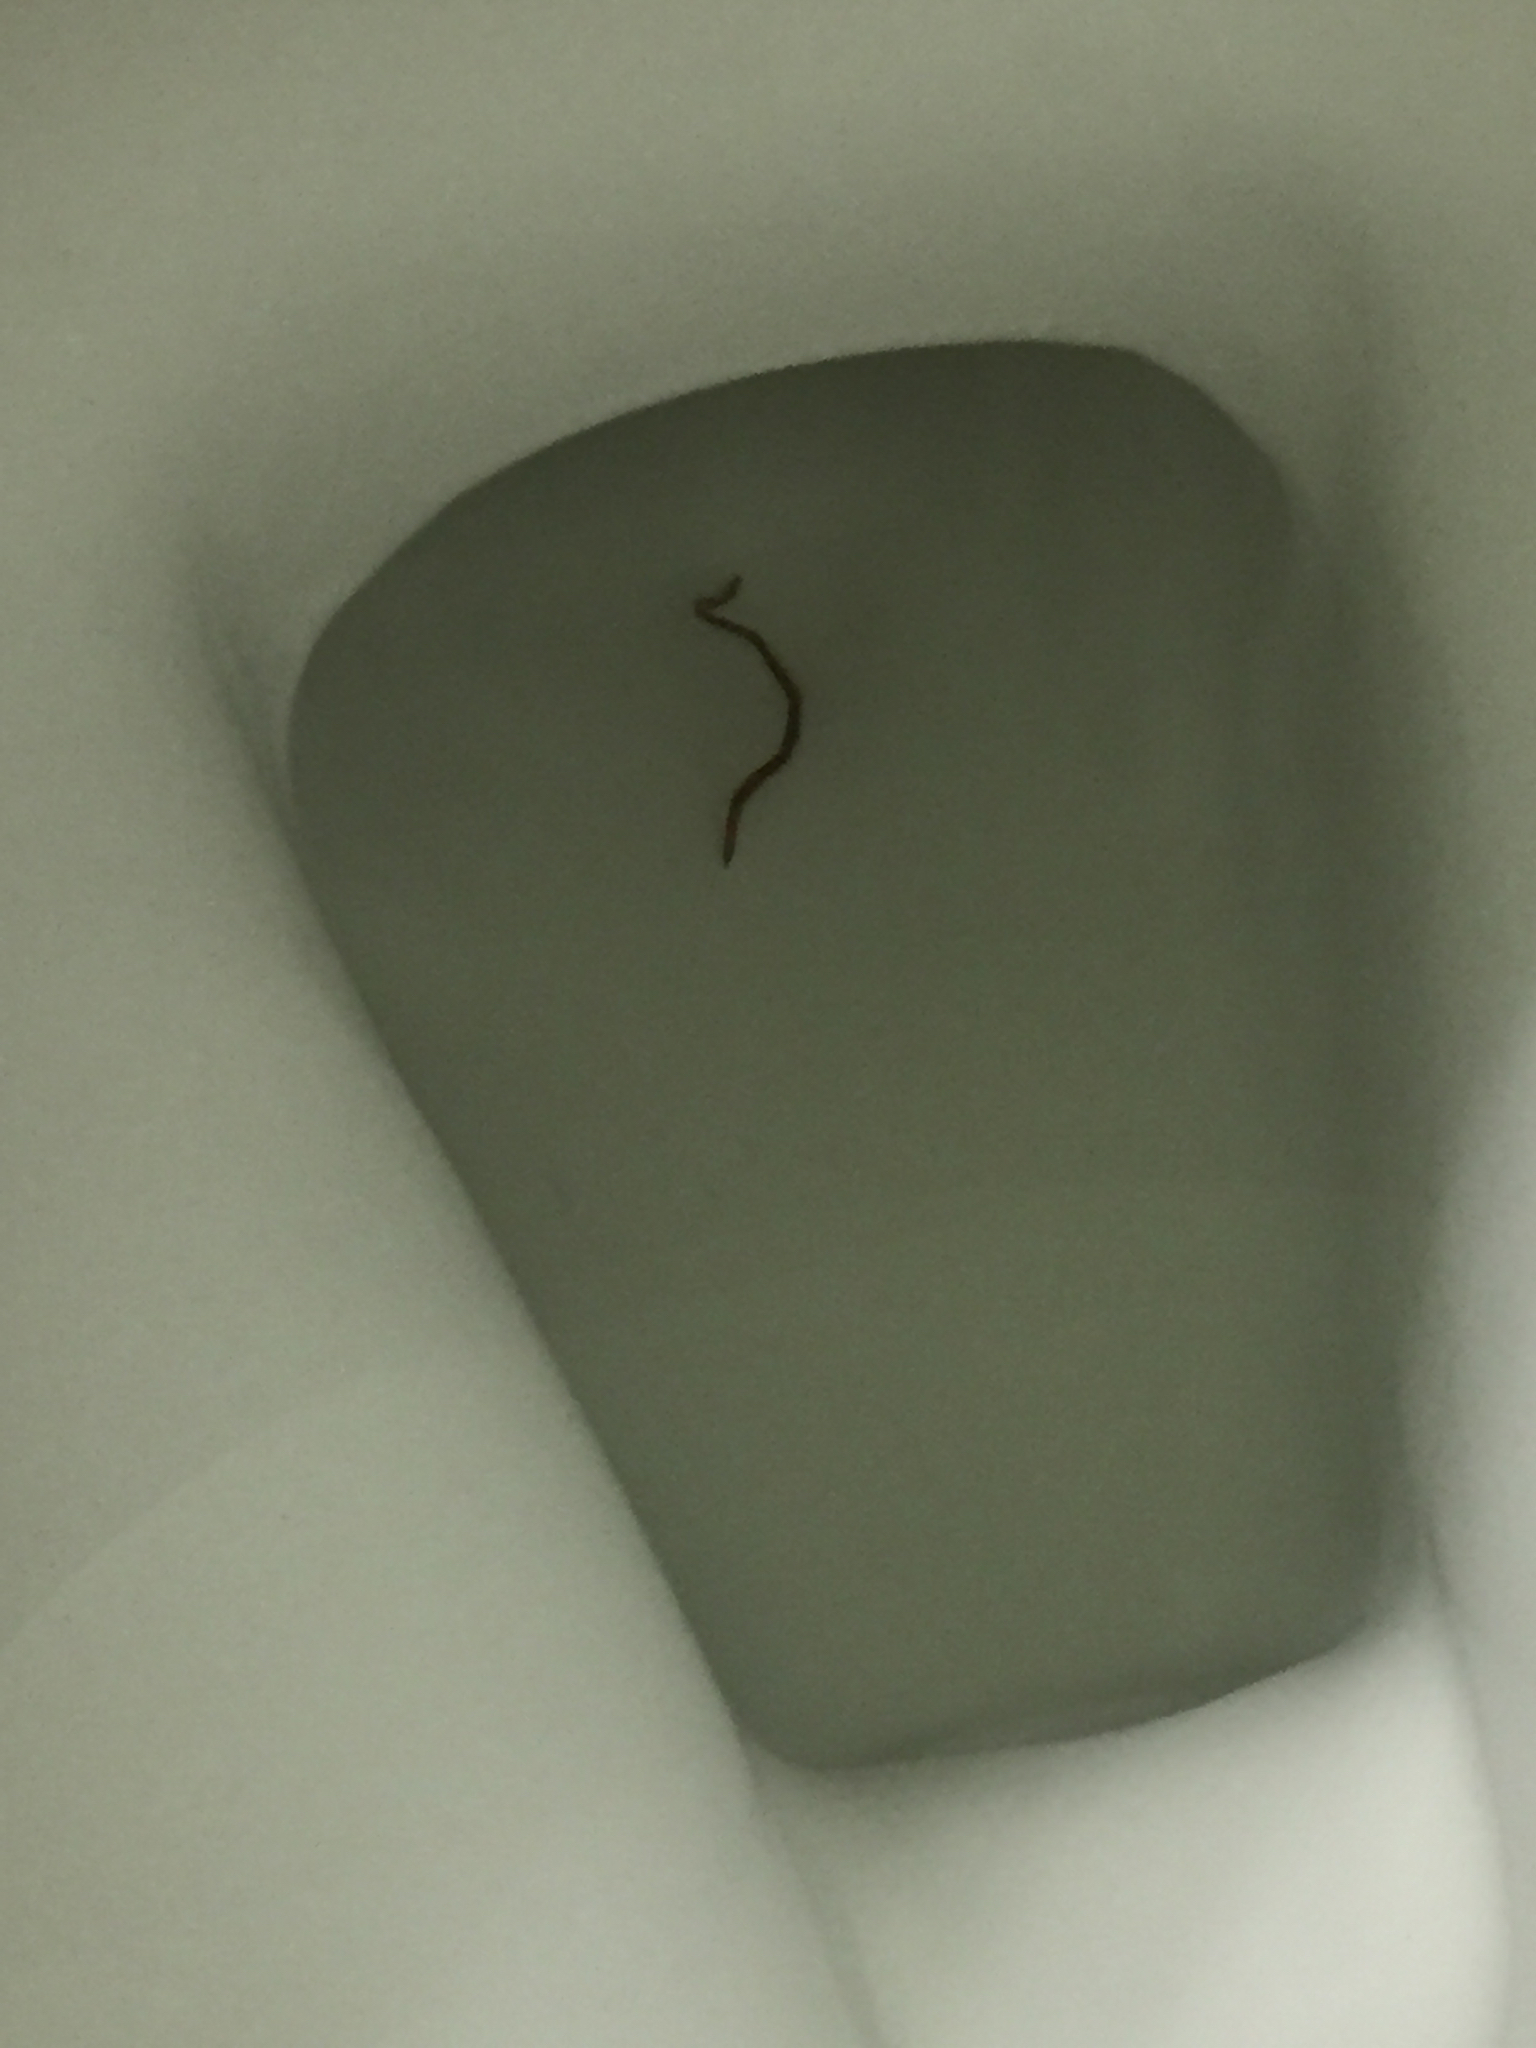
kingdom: Animalia
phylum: Chordata
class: Squamata
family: Typhlopidae
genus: Indotyphlops
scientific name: Indotyphlops braminus
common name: Brahminy blindsnake
